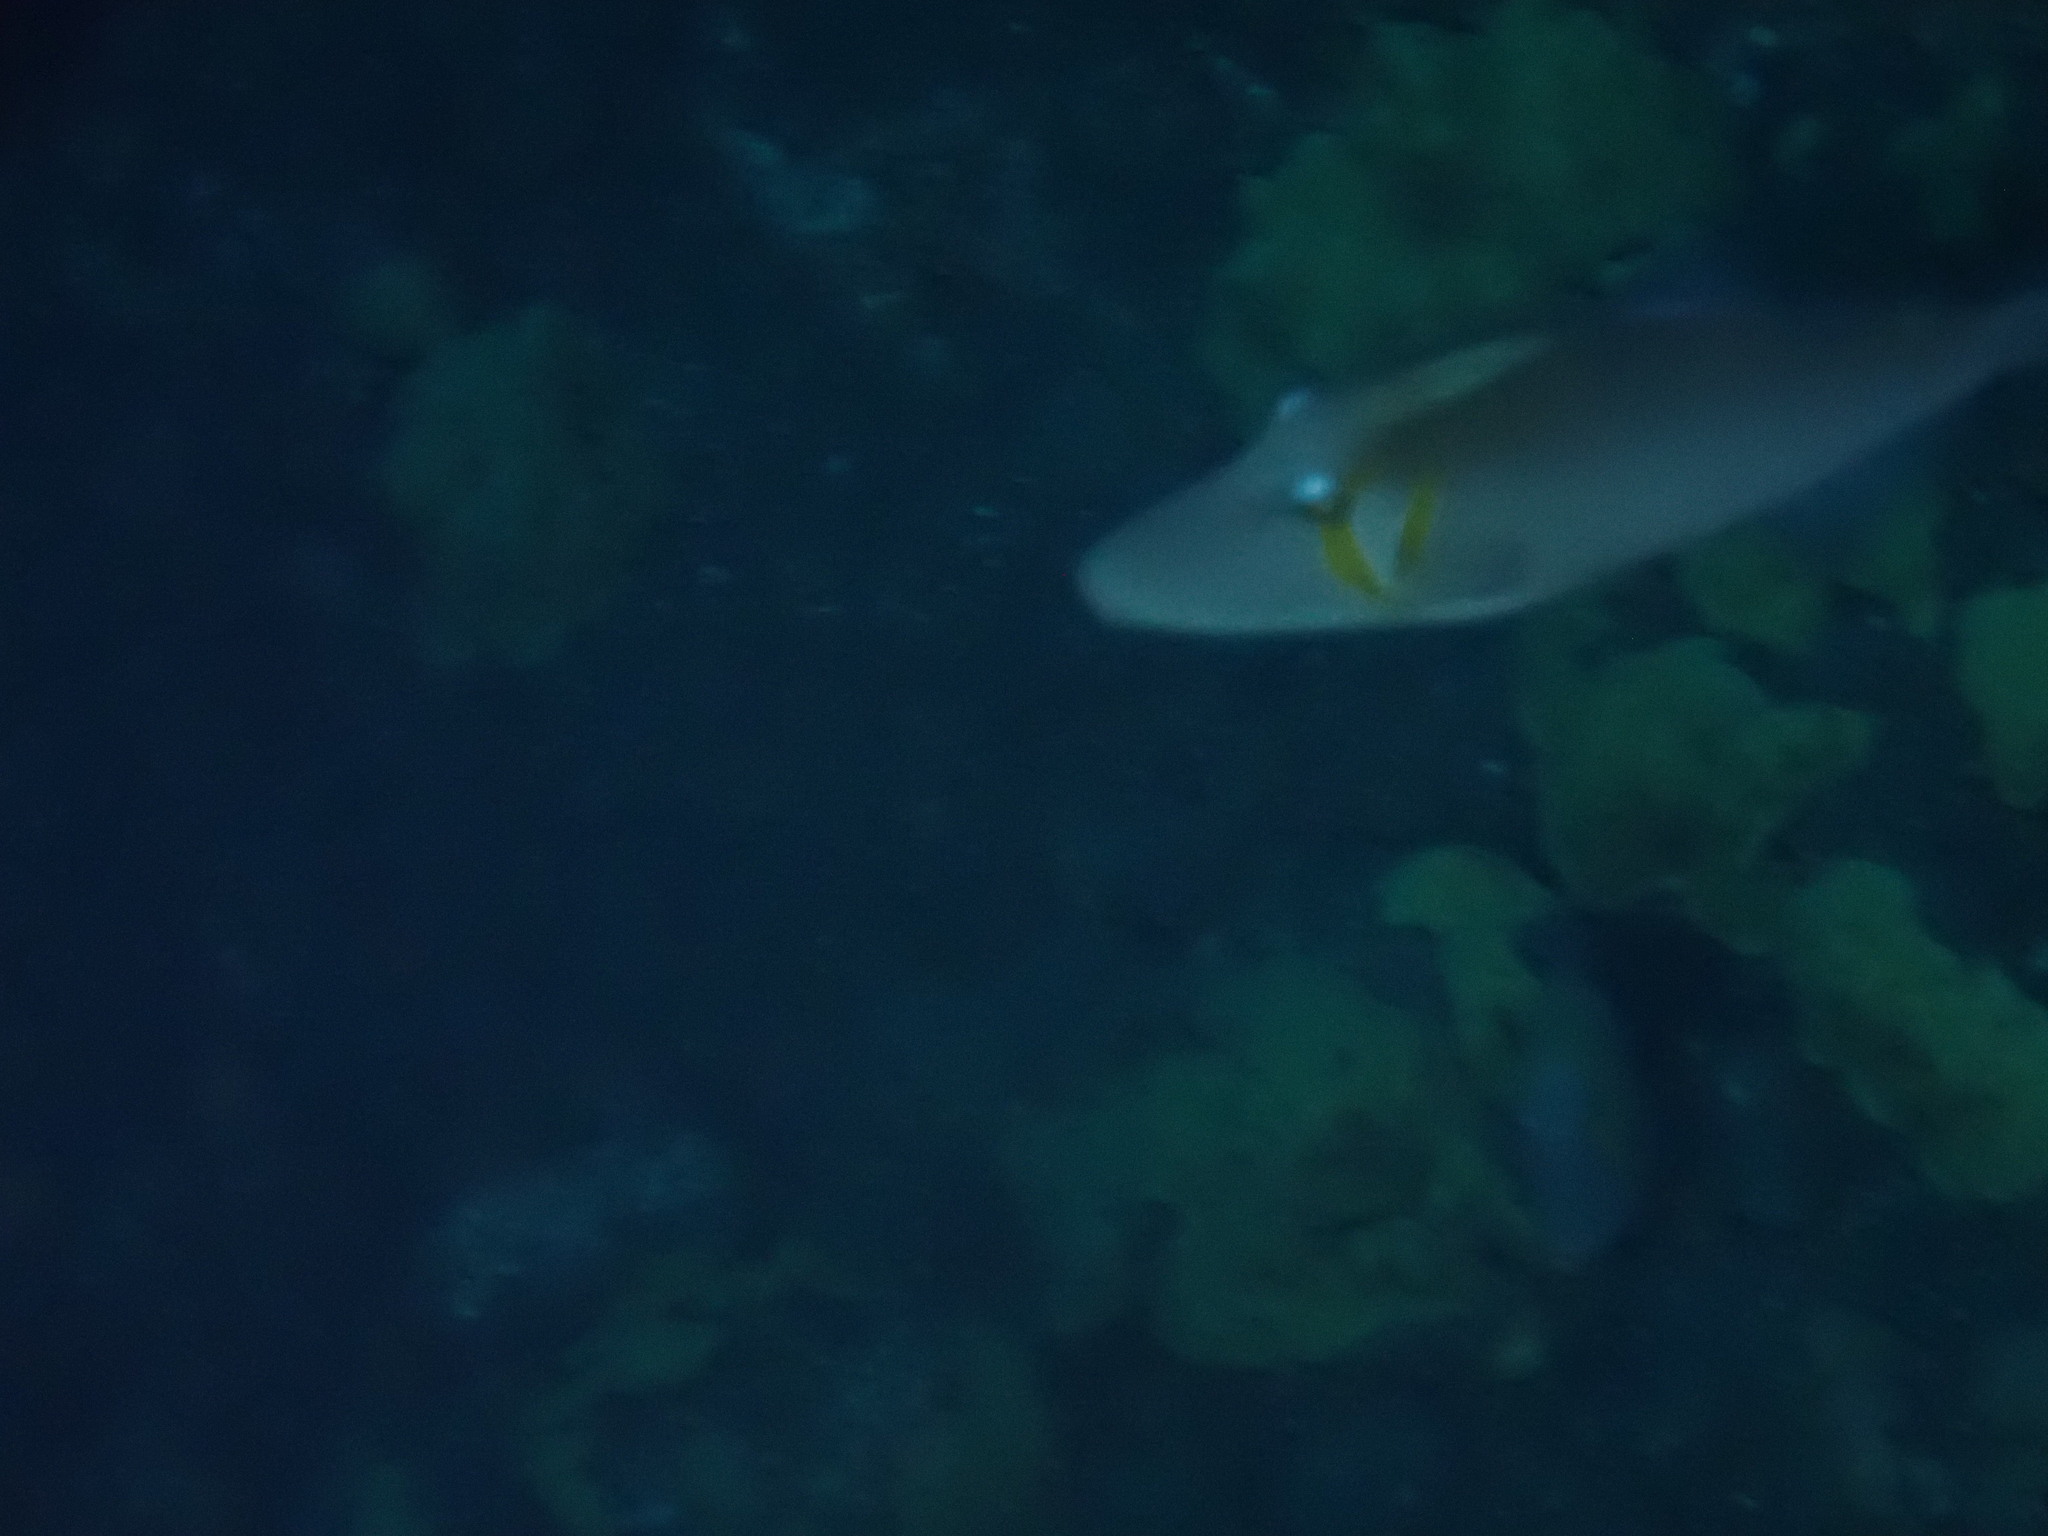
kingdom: Animalia
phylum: Chordata
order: Tetraodontiformes
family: Balistidae
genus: Sufflamen
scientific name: Sufflamen bursa
